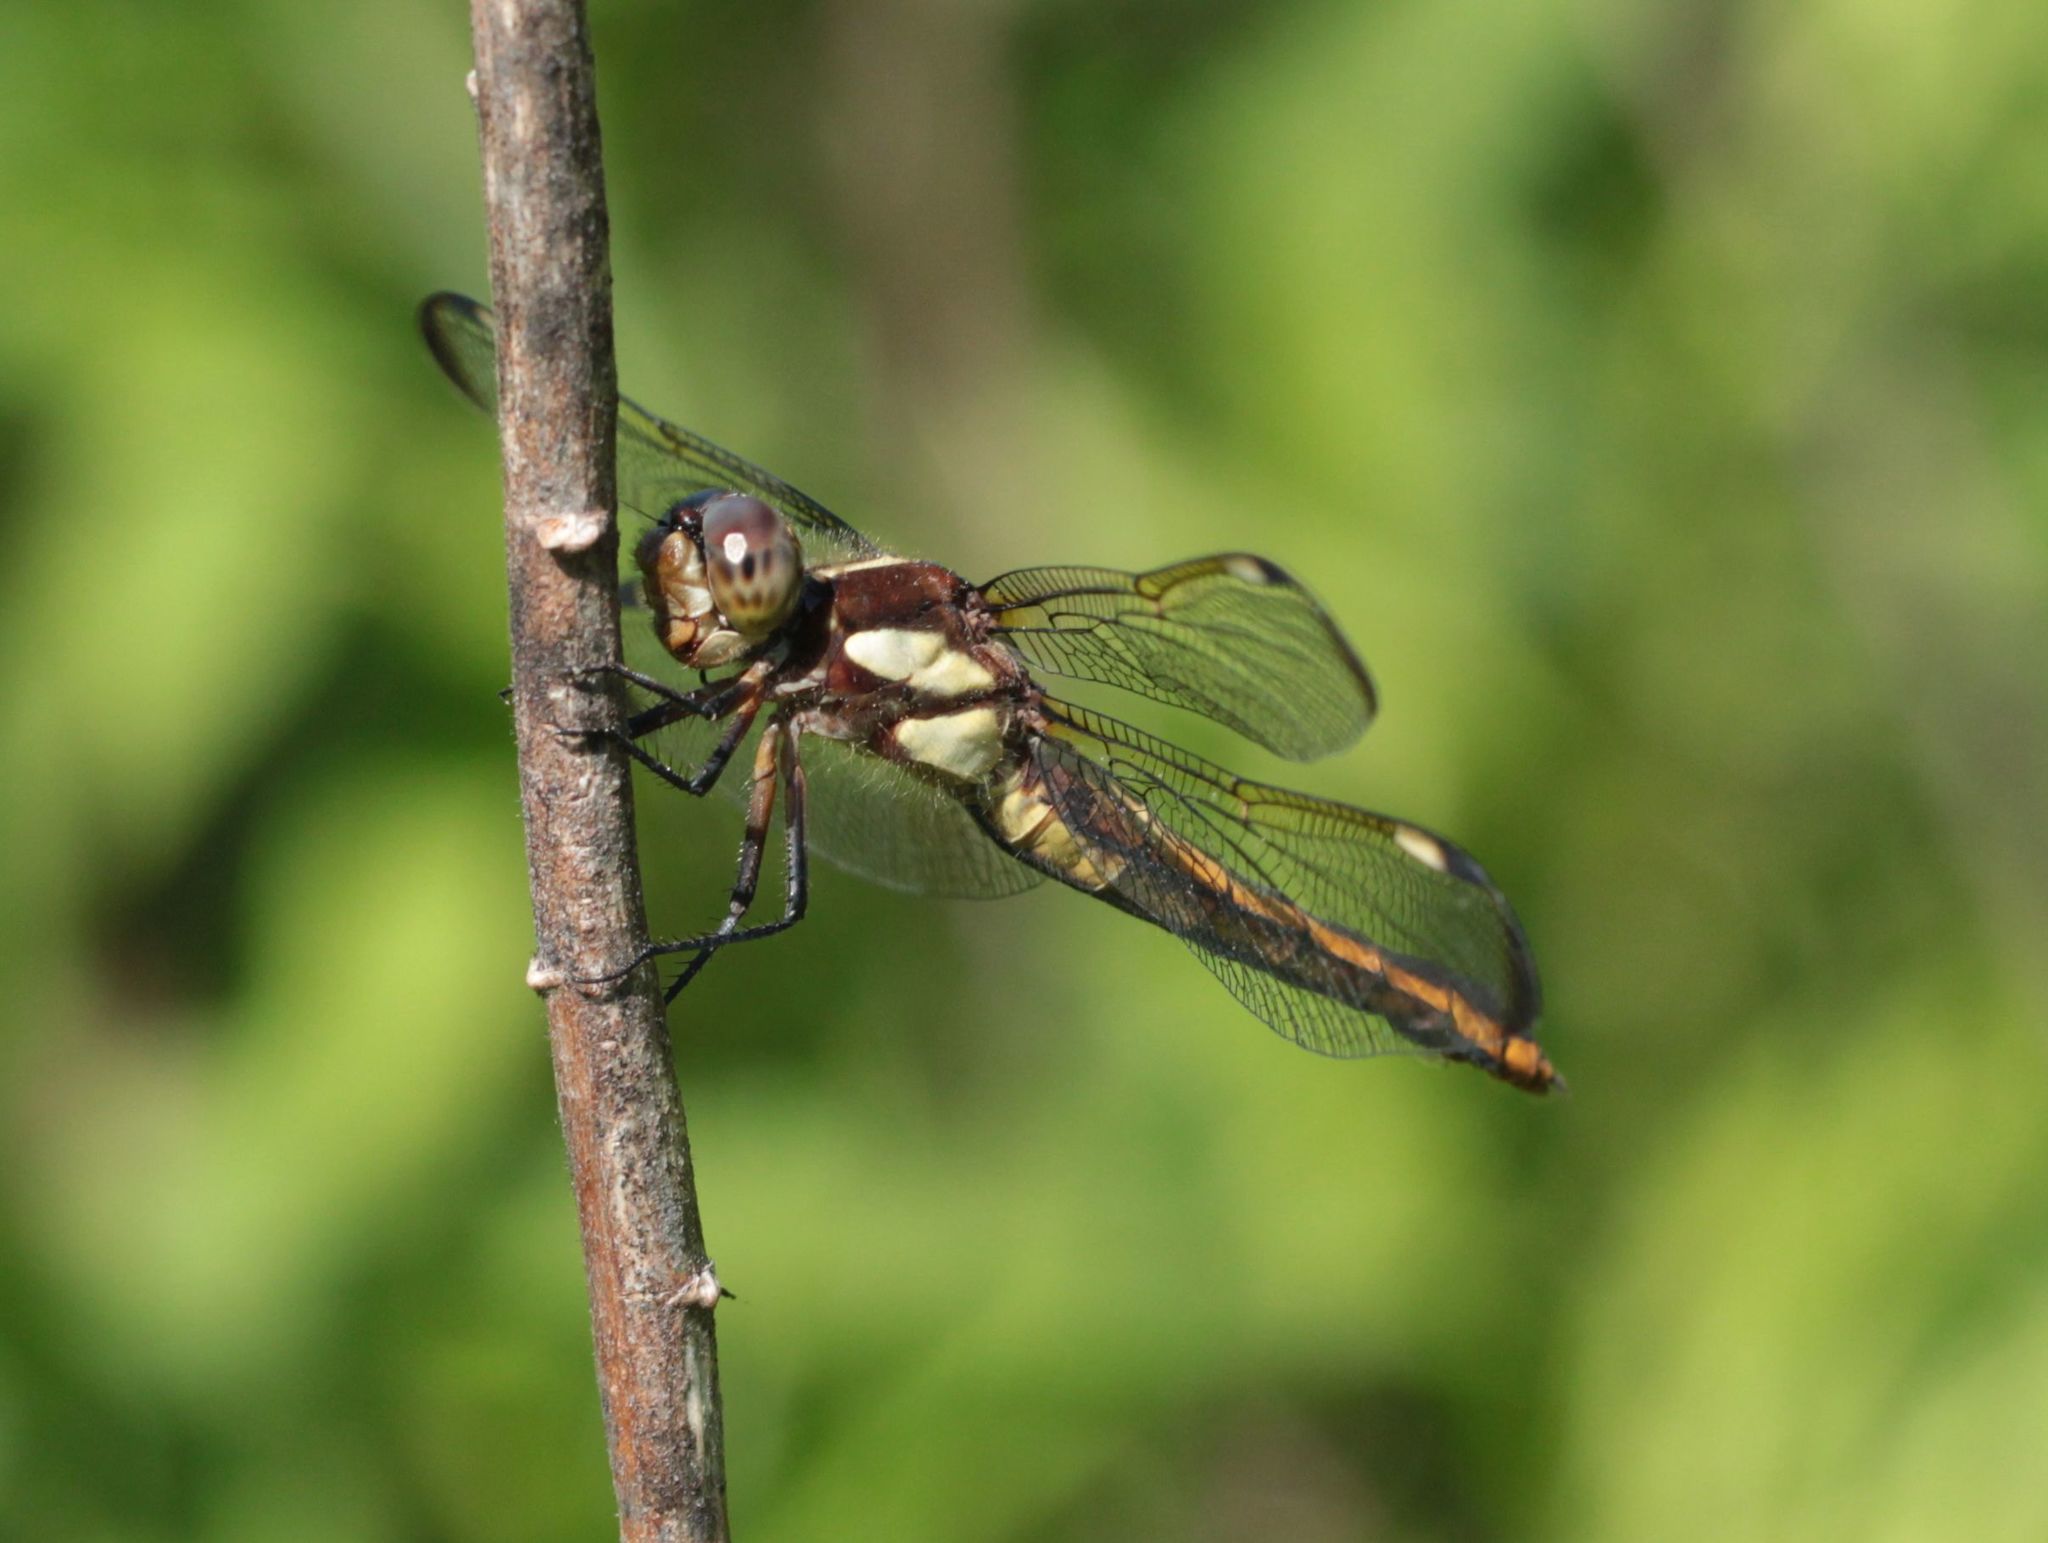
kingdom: Animalia
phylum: Arthropoda
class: Insecta
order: Odonata
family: Libellulidae
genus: Libellula
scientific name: Libellula cyanea
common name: Spangled skimmer
